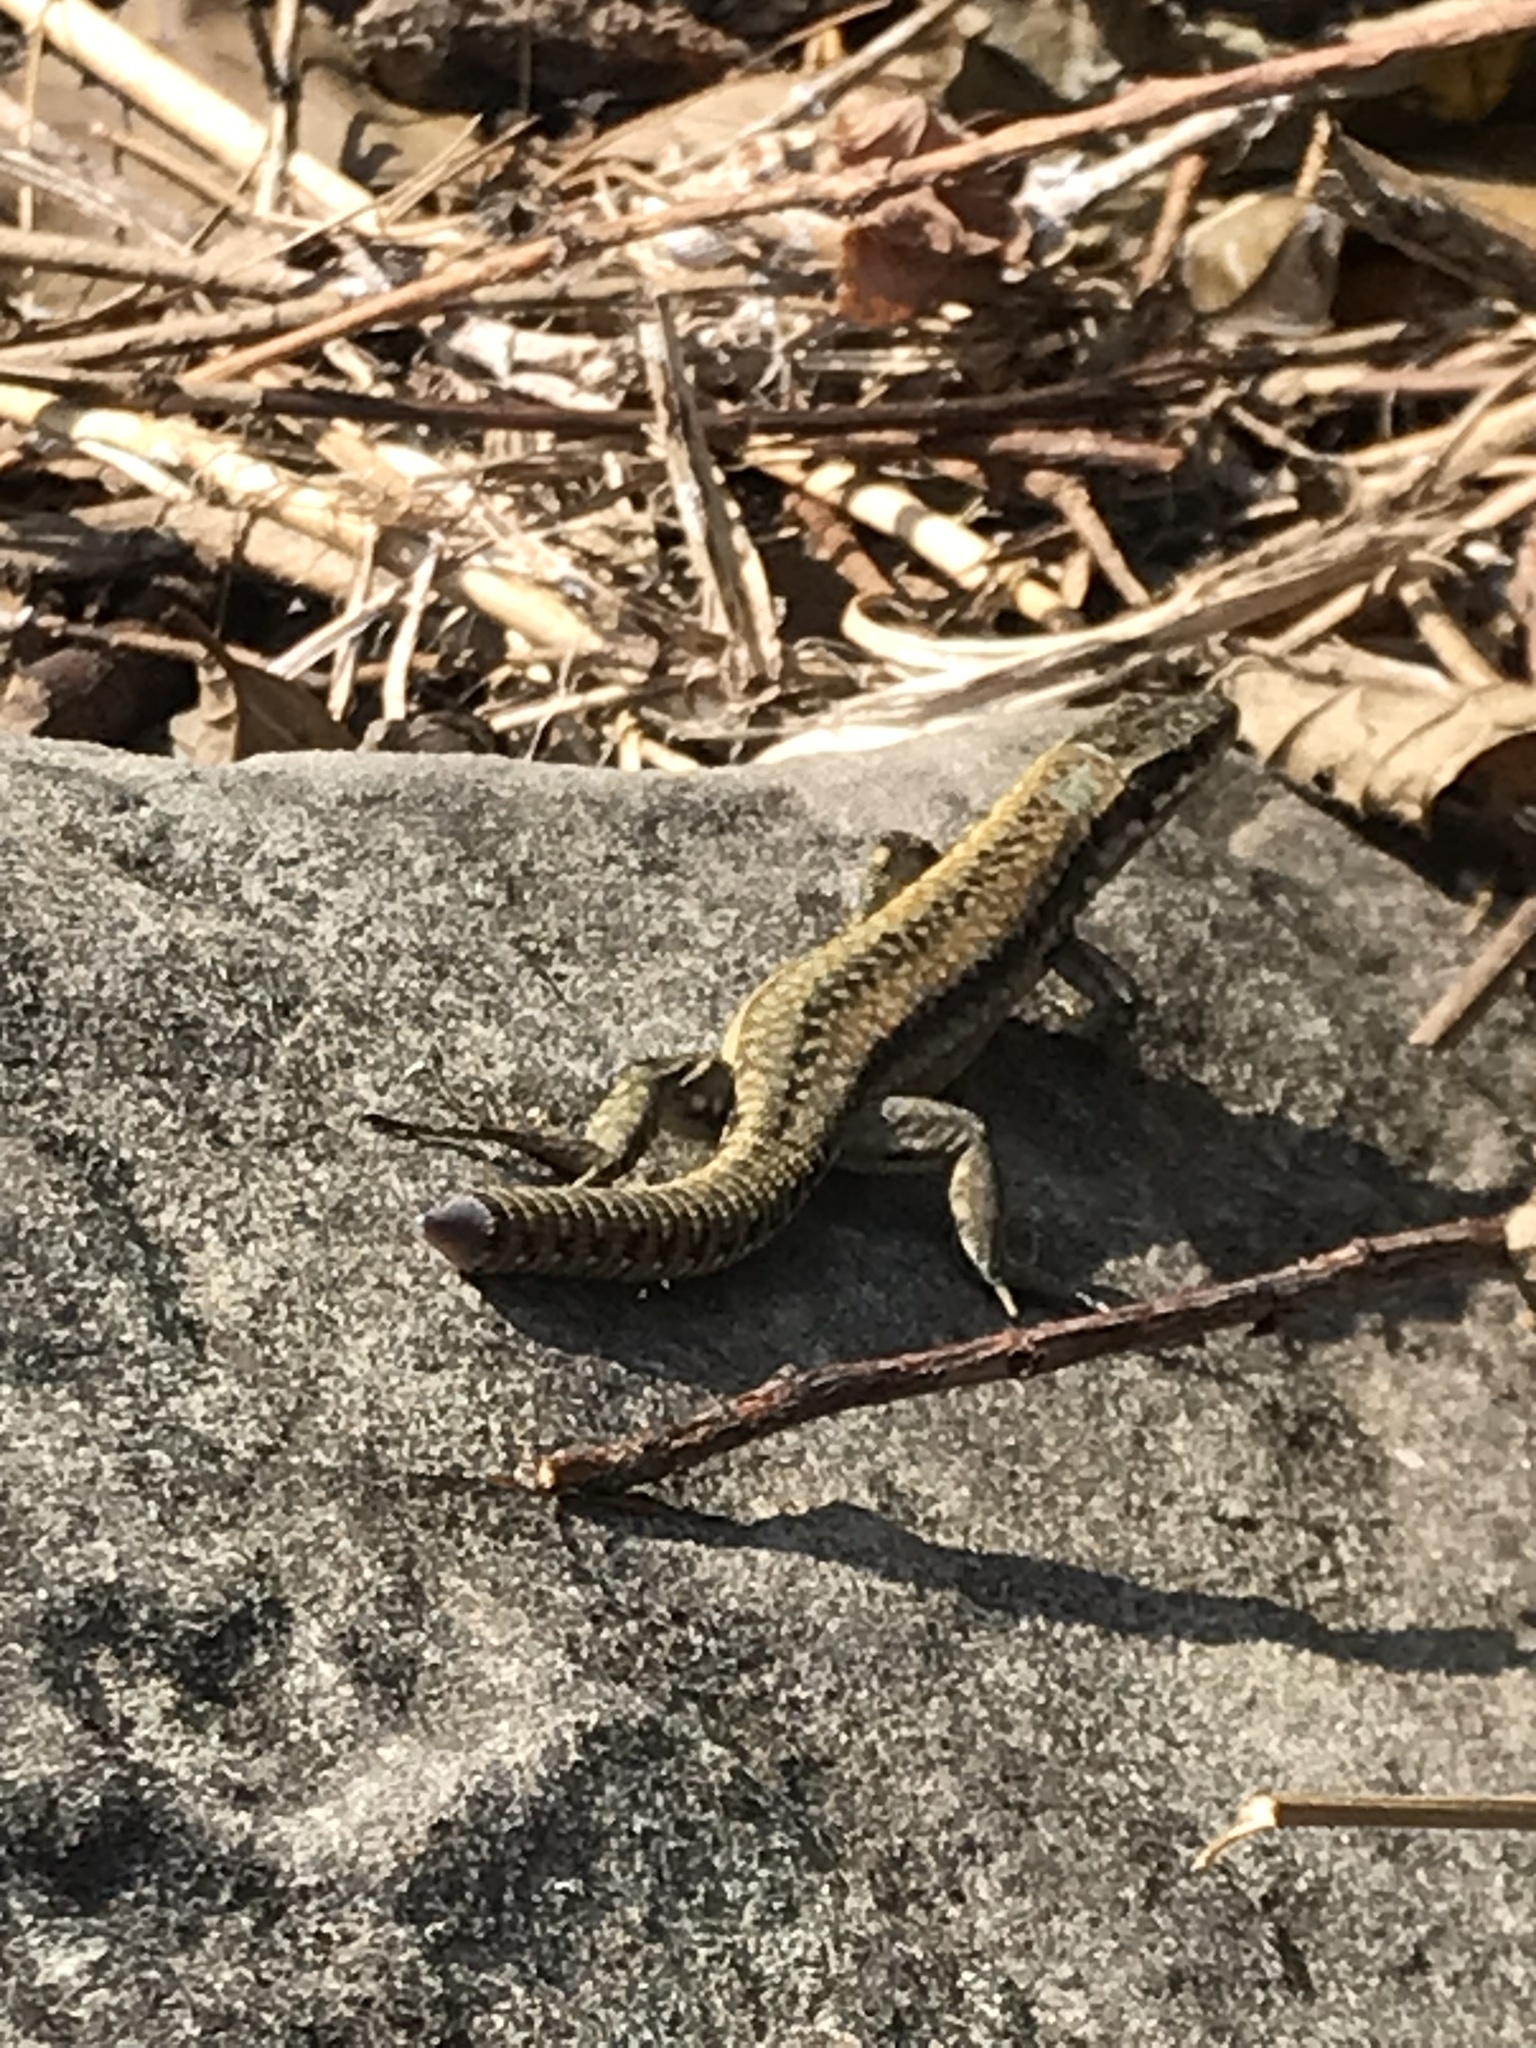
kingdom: Animalia
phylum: Chordata
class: Squamata
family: Lacertidae
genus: Podarcis
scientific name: Podarcis muralis
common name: Common wall lizard
